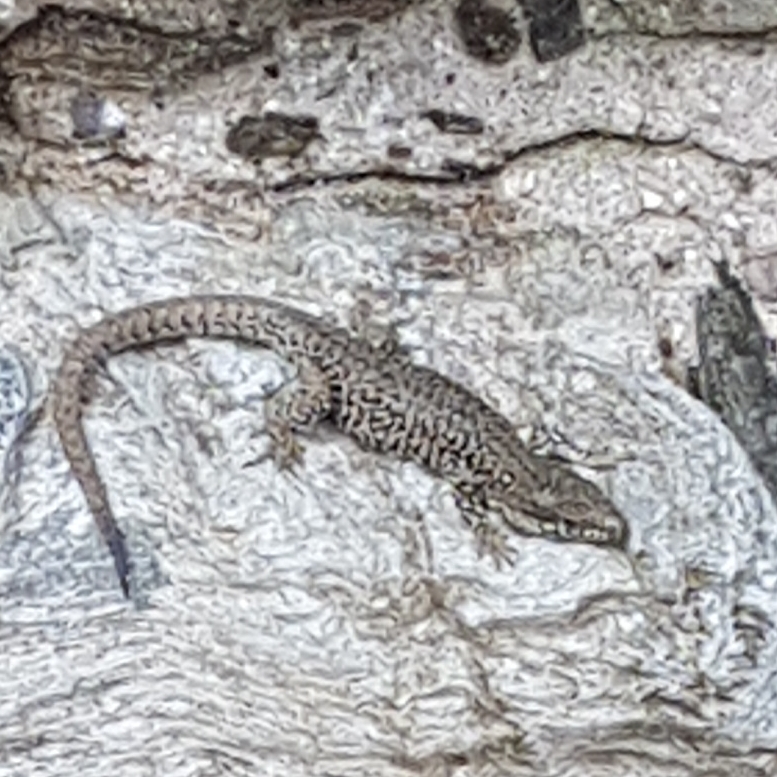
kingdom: Animalia
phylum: Chordata
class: Squamata
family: Lacertidae
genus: Podarcis
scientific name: Podarcis muralis
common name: Common wall lizard
